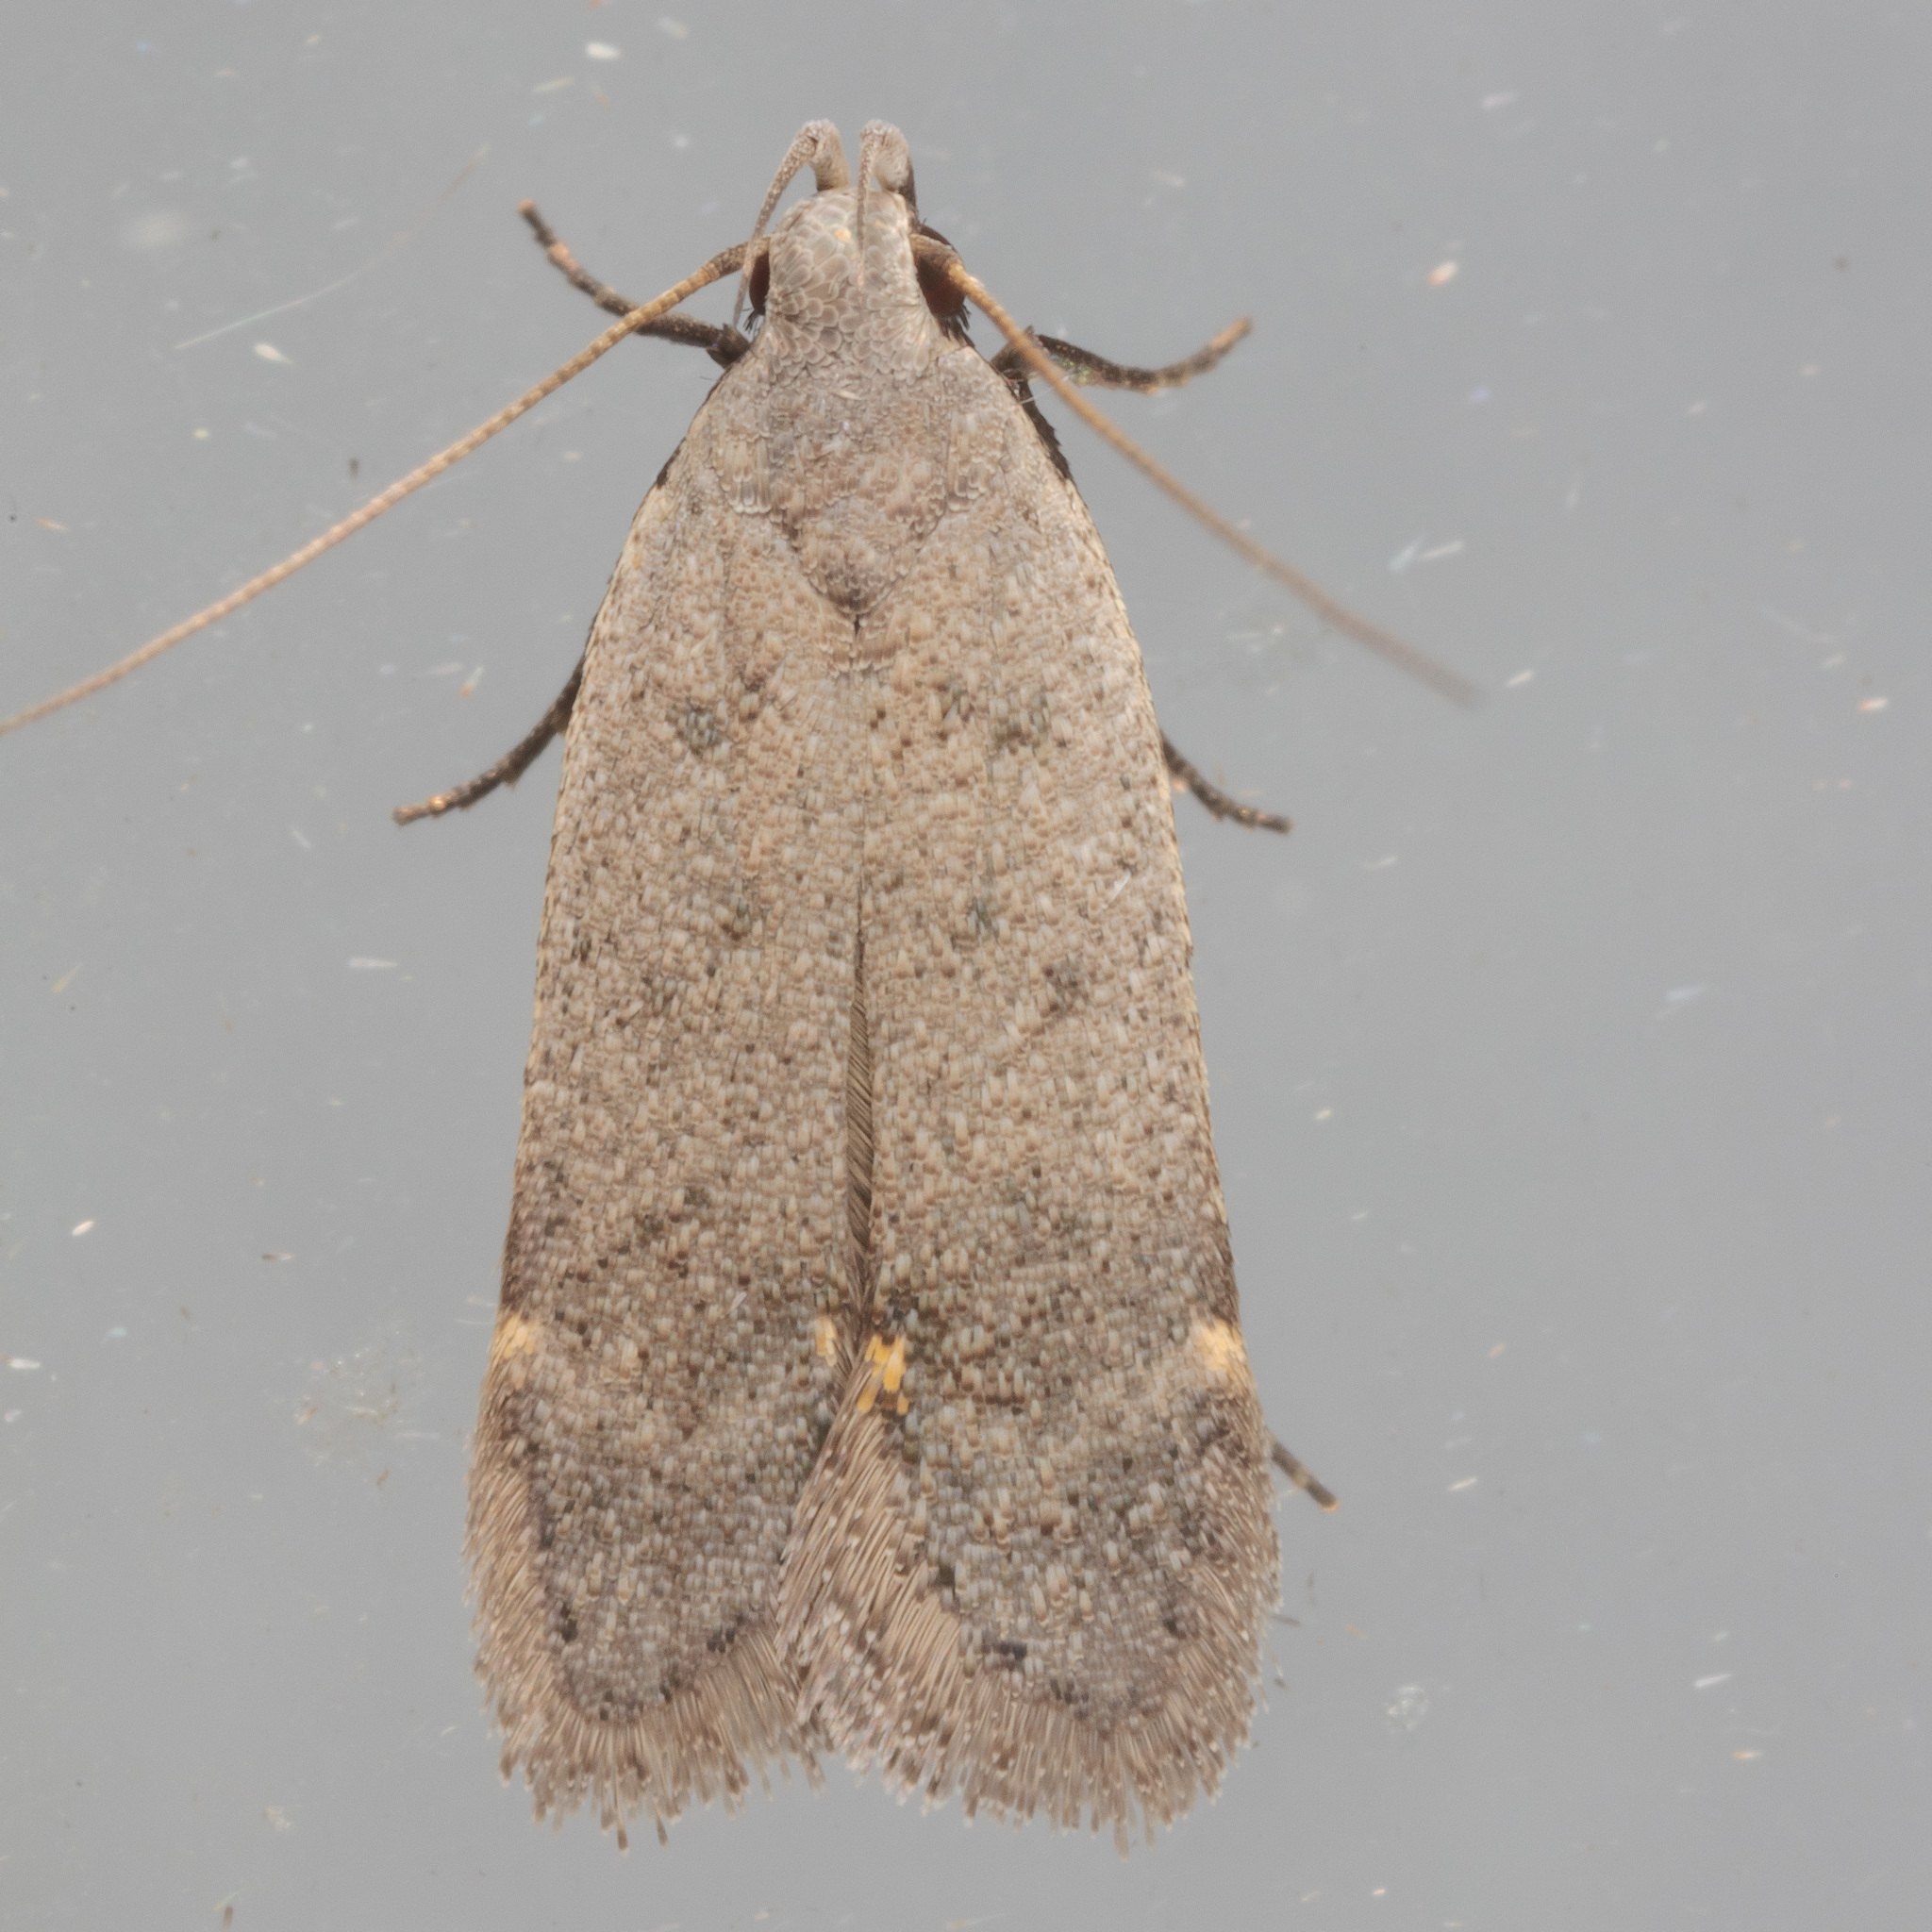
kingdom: Animalia
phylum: Arthropoda
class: Insecta
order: Lepidoptera
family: Gelechiidae
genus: Anacampsis
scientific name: Anacampsis comparanda
